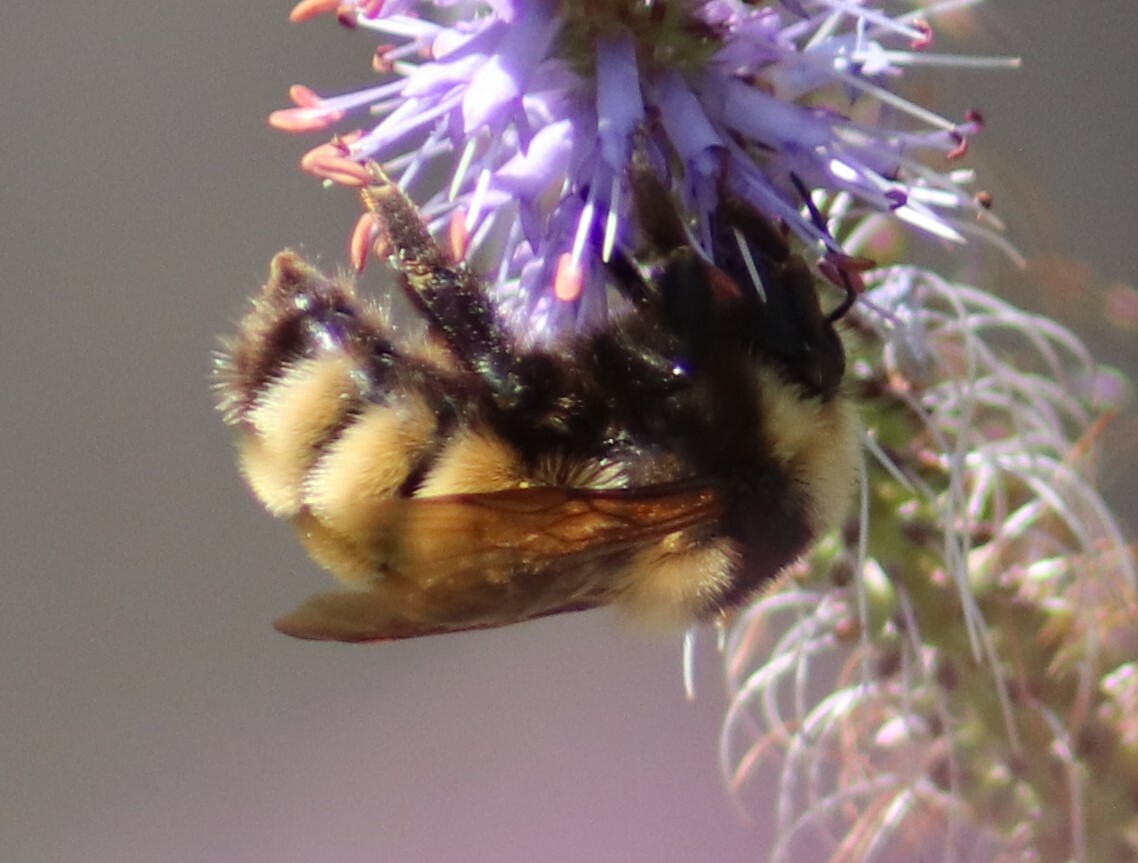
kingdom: Animalia
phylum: Arthropoda
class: Insecta
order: Hymenoptera
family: Apidae
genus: Bombus
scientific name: Bombus borealis
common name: Northern amber bumble bee
